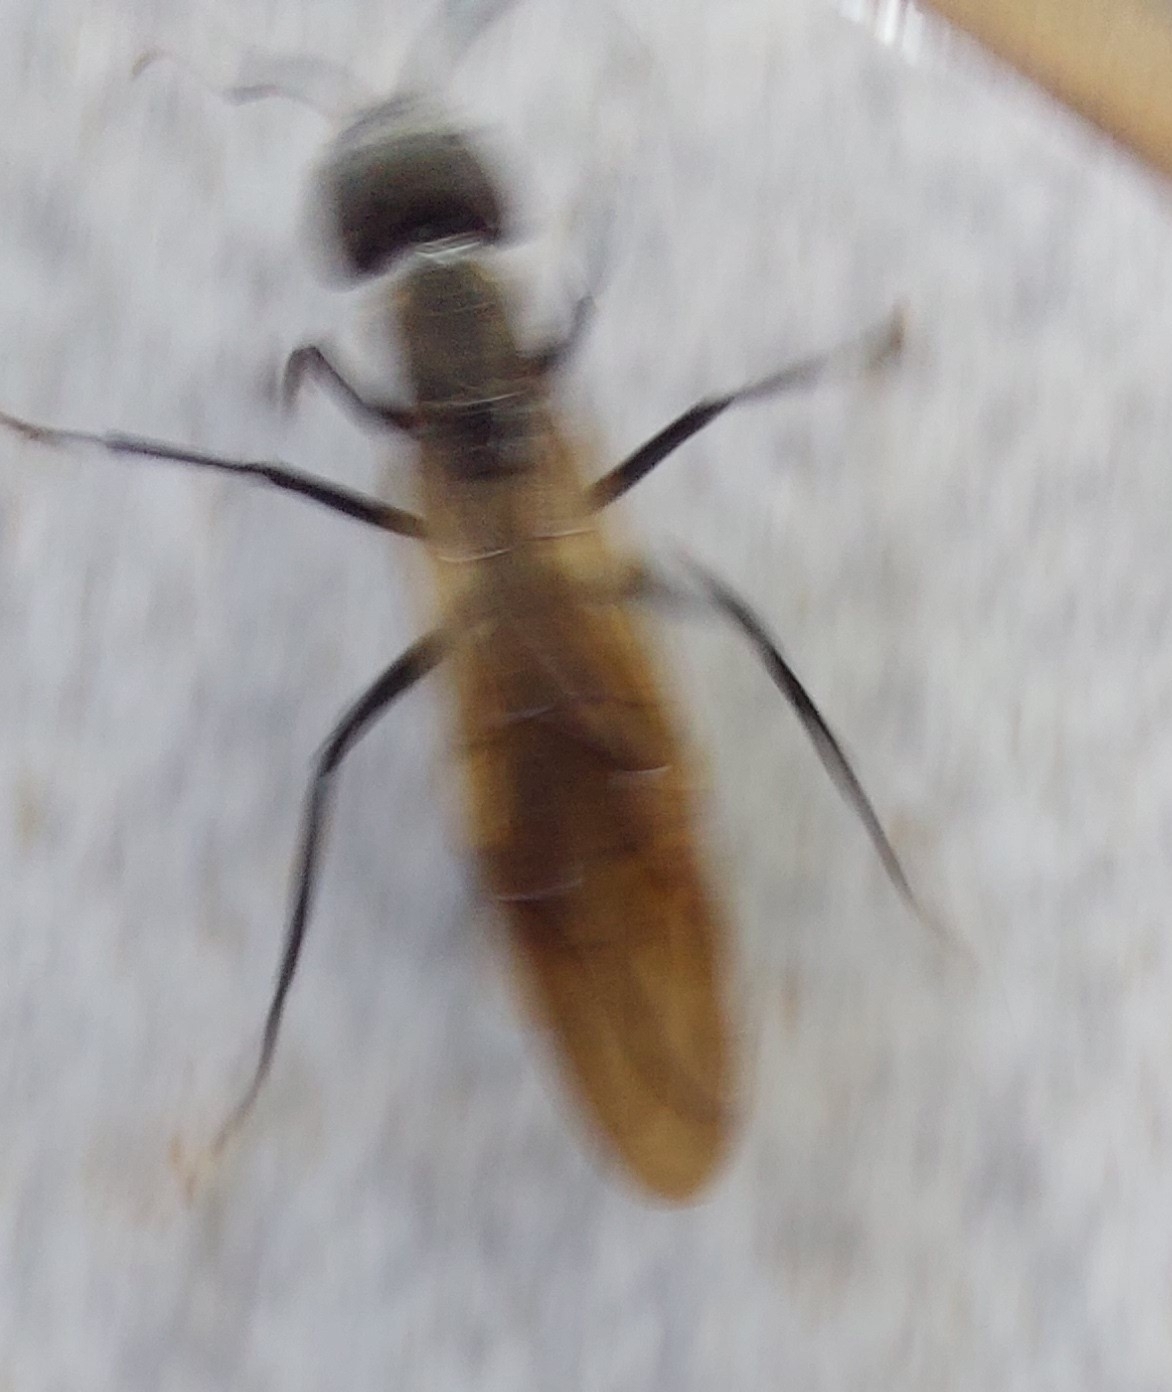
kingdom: Animalia
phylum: Arthropoda
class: Insecta
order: Hymenoptera
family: Formicidae
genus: Camponotus
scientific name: Camponotus sericeiventris
